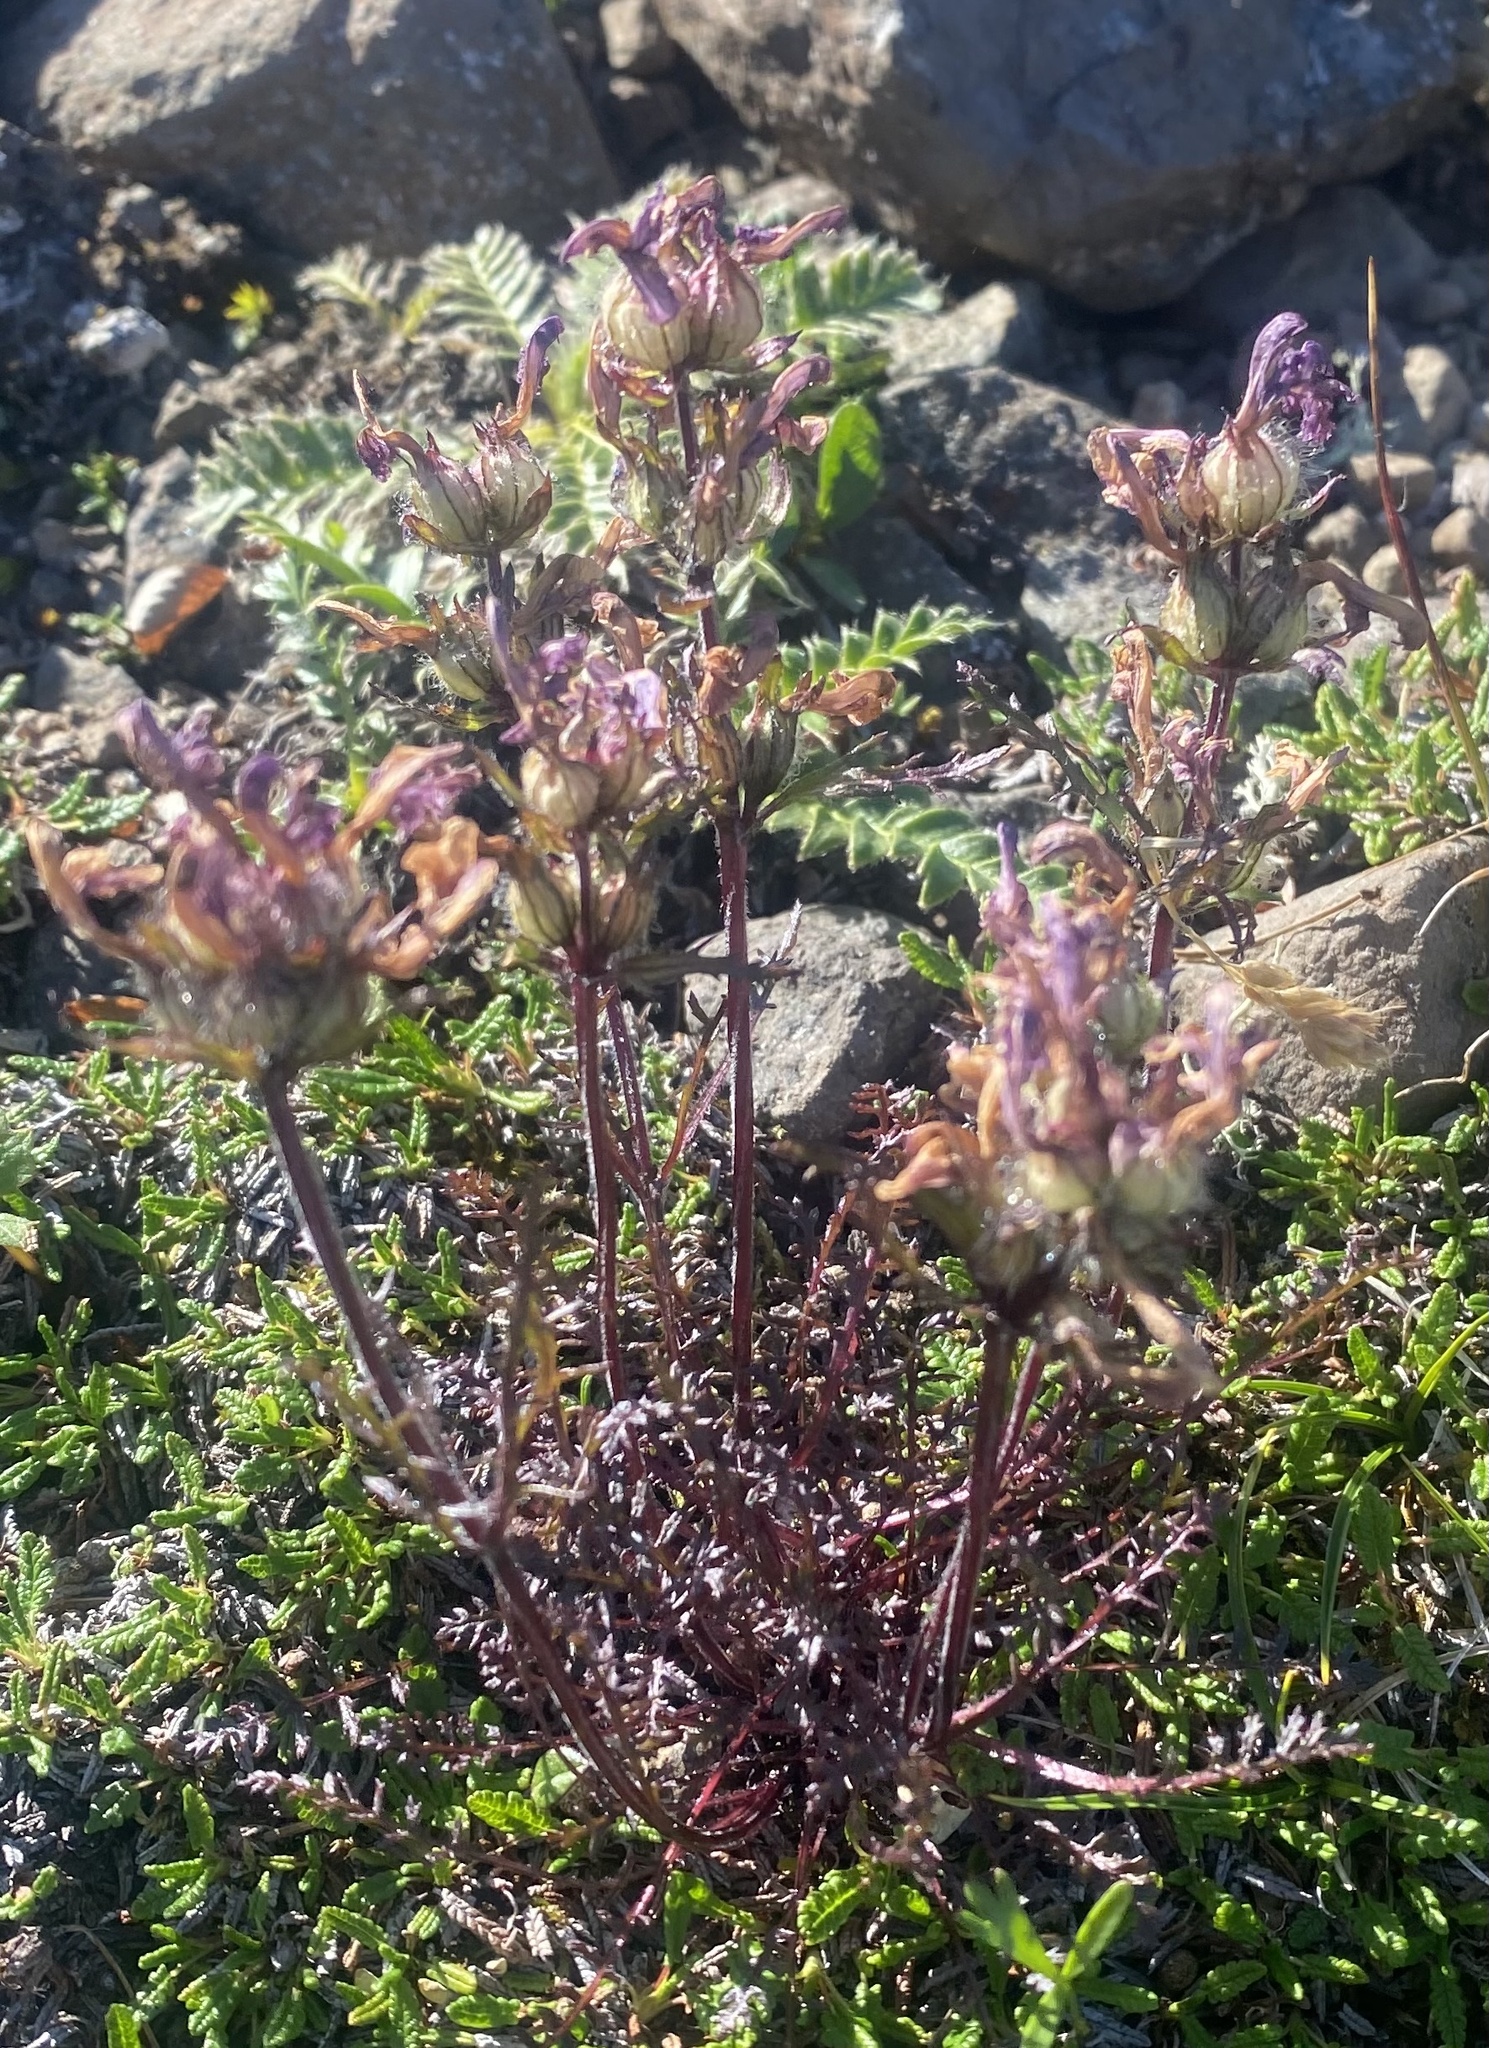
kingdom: Plantae
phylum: Tracheophyta
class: Magnoliopsida
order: Lamiales
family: Orobanchaceae
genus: Pedicularis
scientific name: Pedicularis amoena
